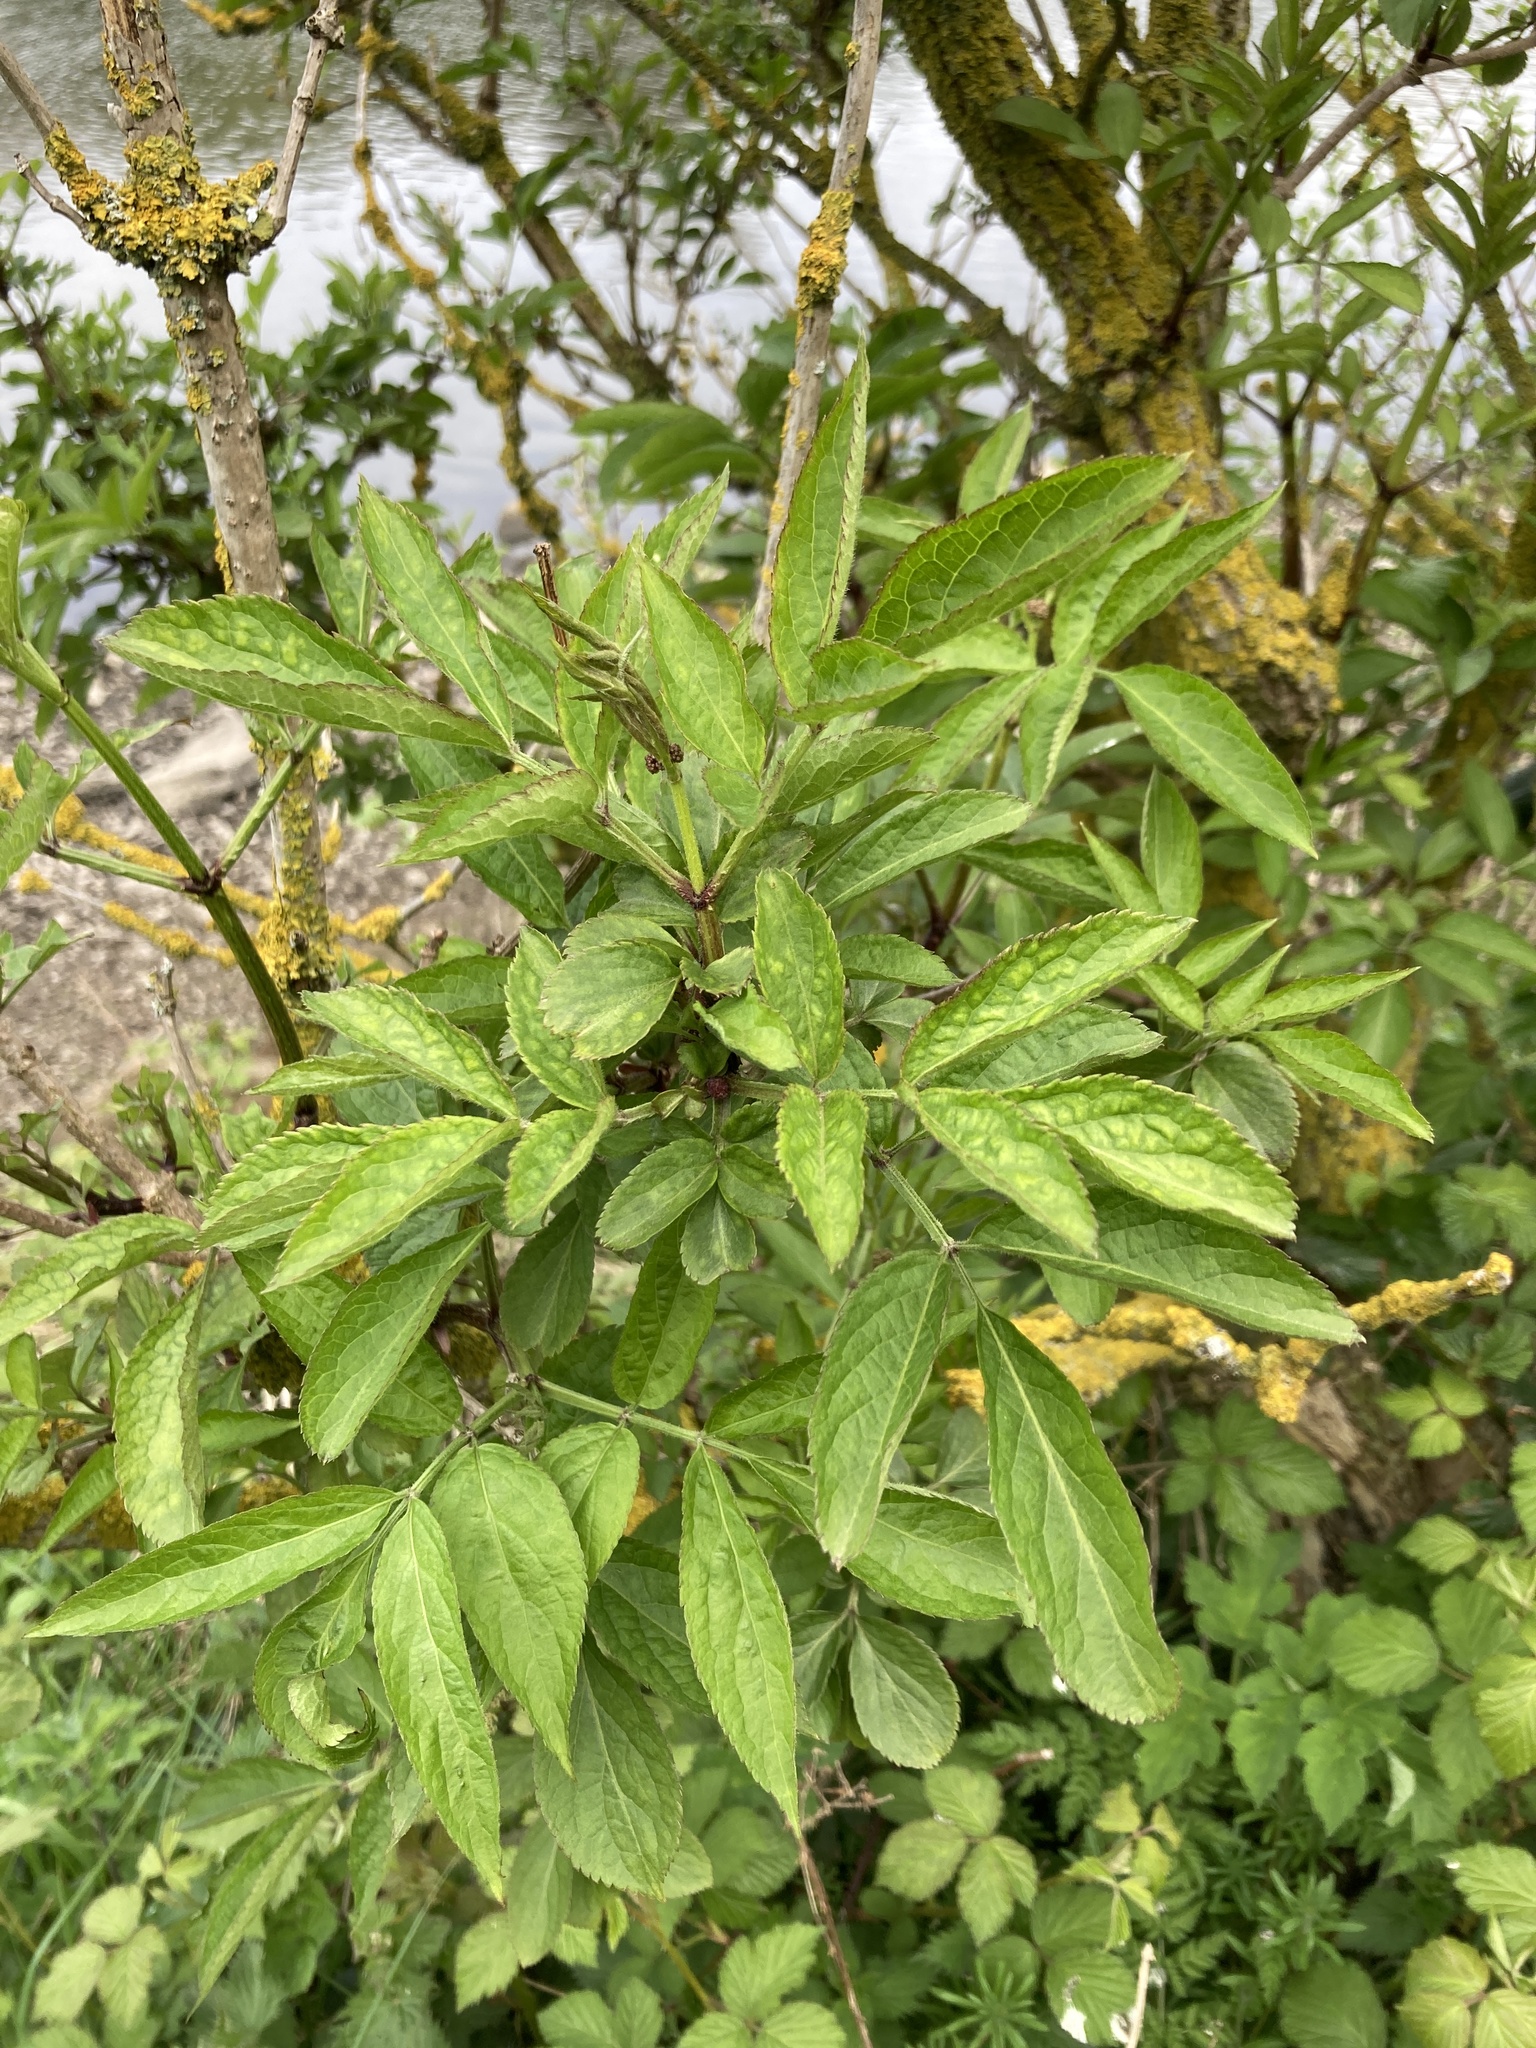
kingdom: Plantae
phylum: Tracheophyta
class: Magnoliopsida
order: Dipsacales
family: Viburnaceae
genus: Sambucus
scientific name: Sambucus nigra
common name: Elder
